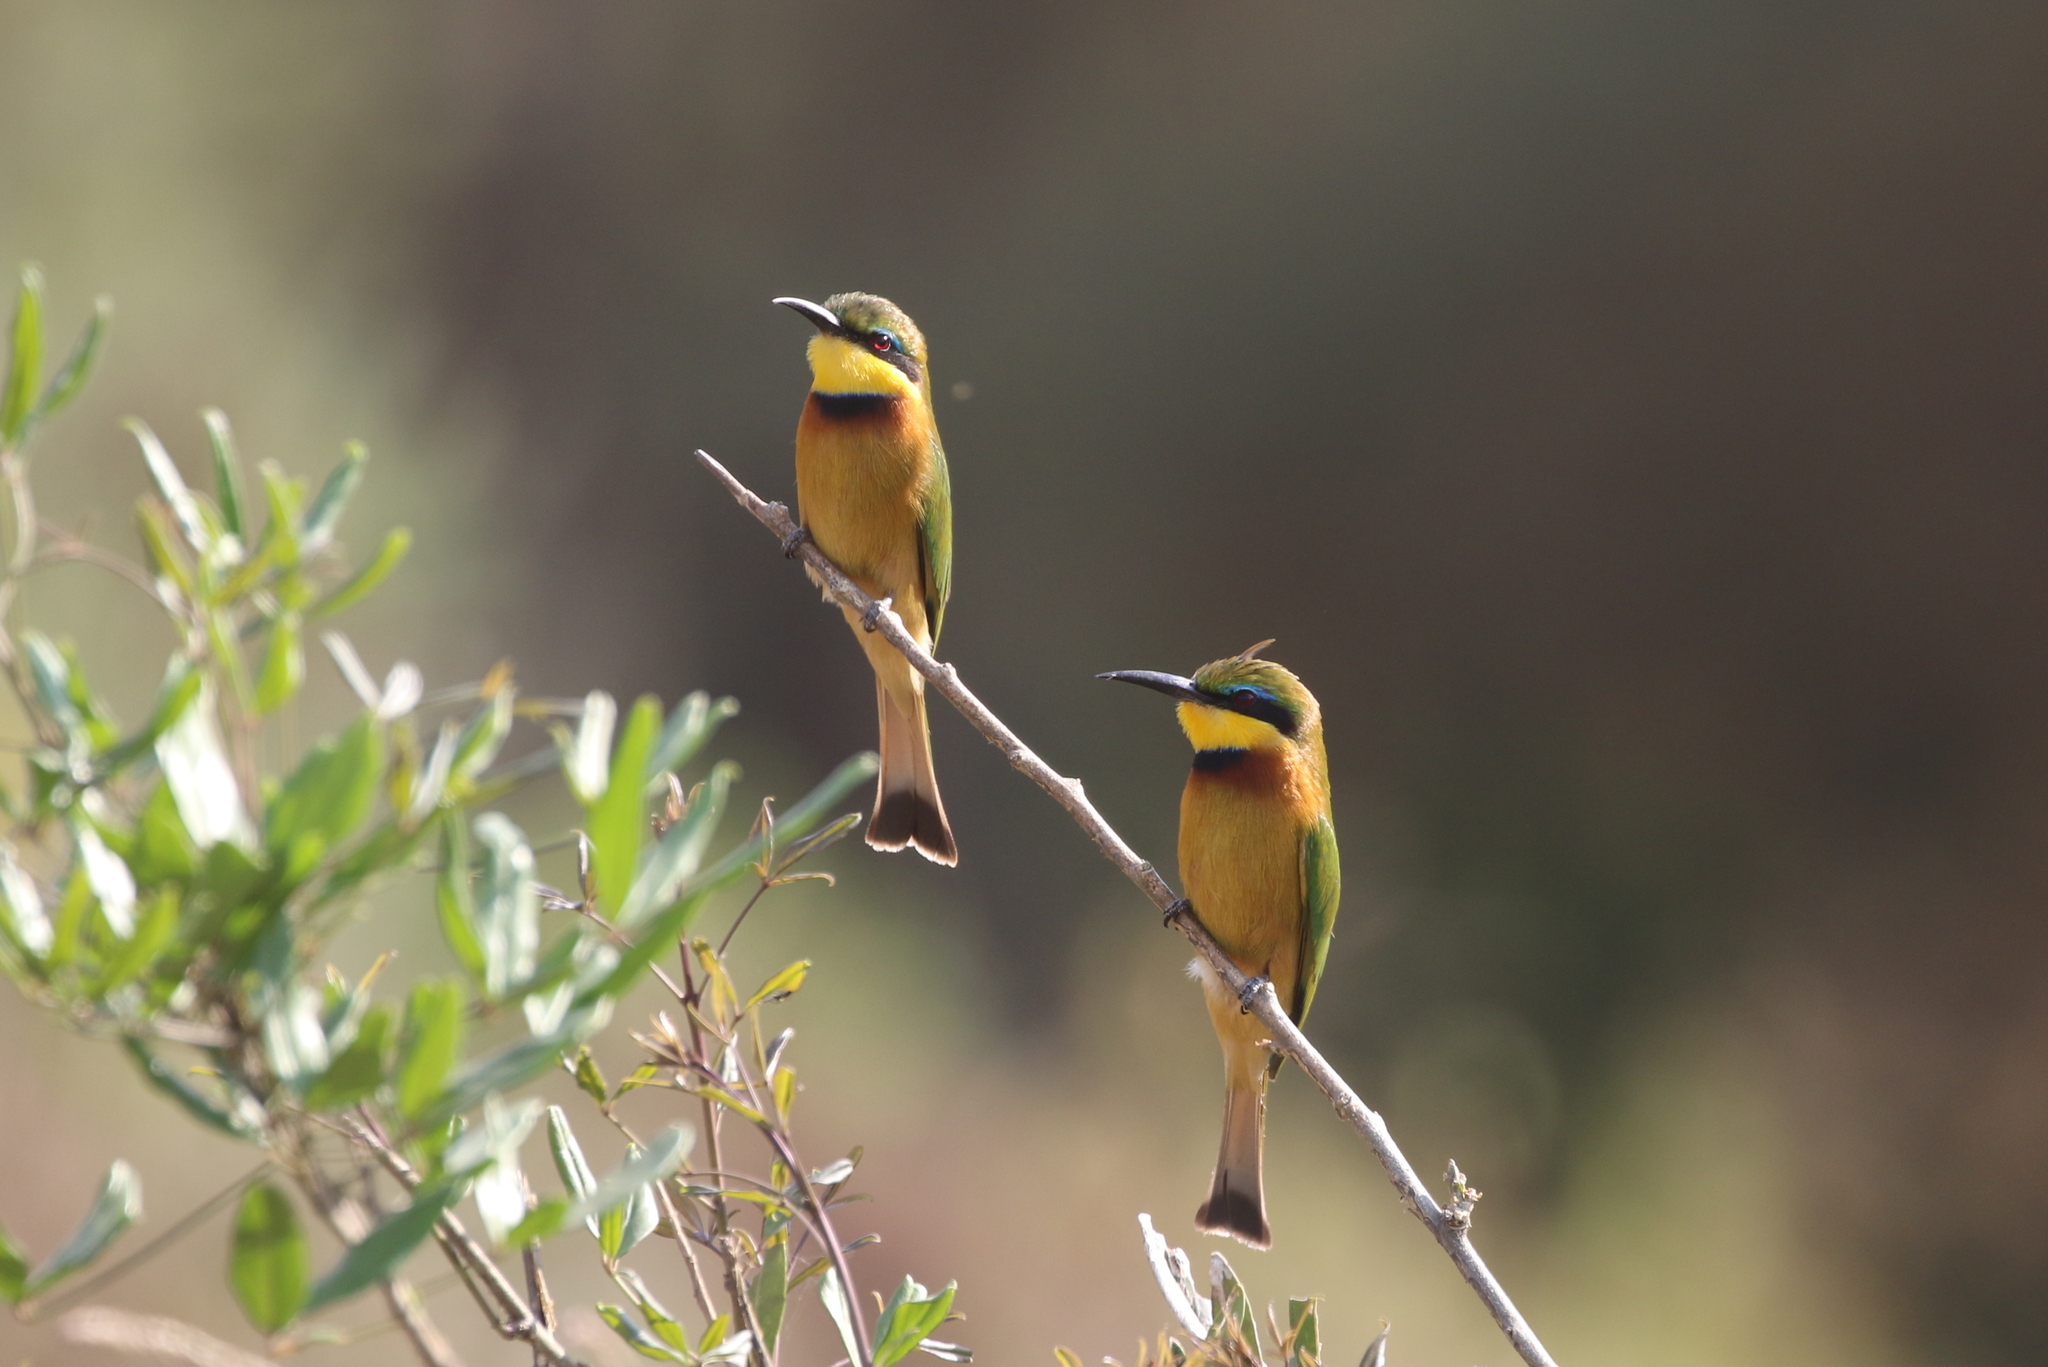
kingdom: Animalia
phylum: Chordata
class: Aves
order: Coraciiformes
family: Meropidae
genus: Merops
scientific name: Merops pusillus
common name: Little bee-eater
